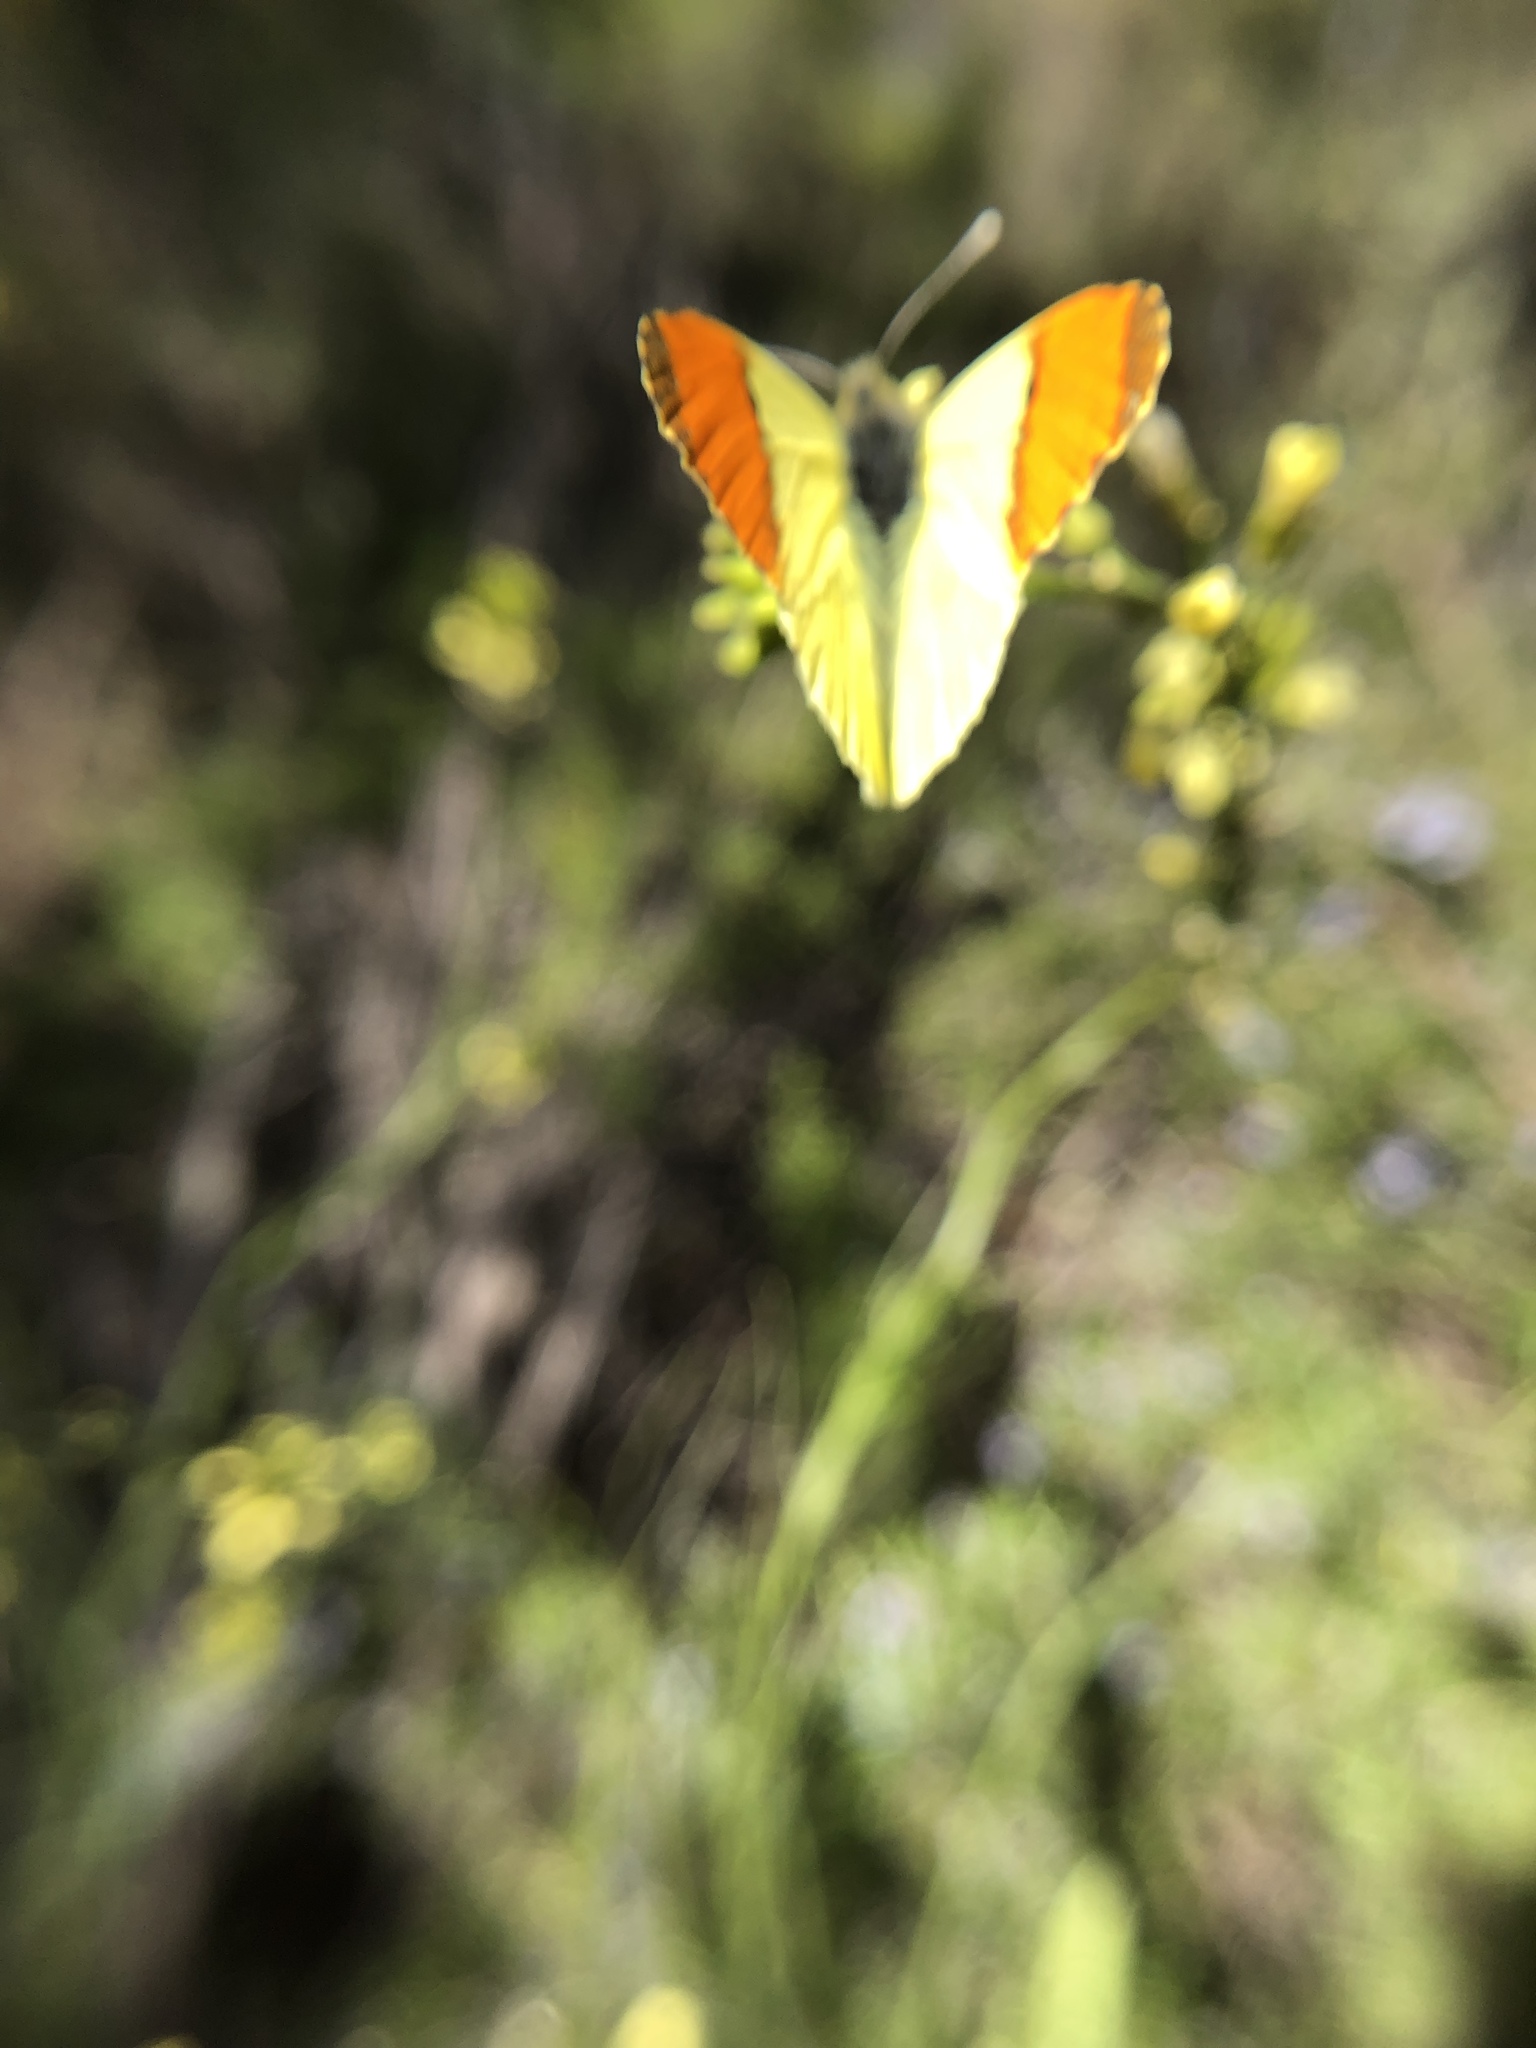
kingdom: Animalia
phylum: Arthropoda
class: Insecta
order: Lepidoptera
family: Pieridae
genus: Anthocharis
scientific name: Anthocharis euphenoides
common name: Provence orange-tip
